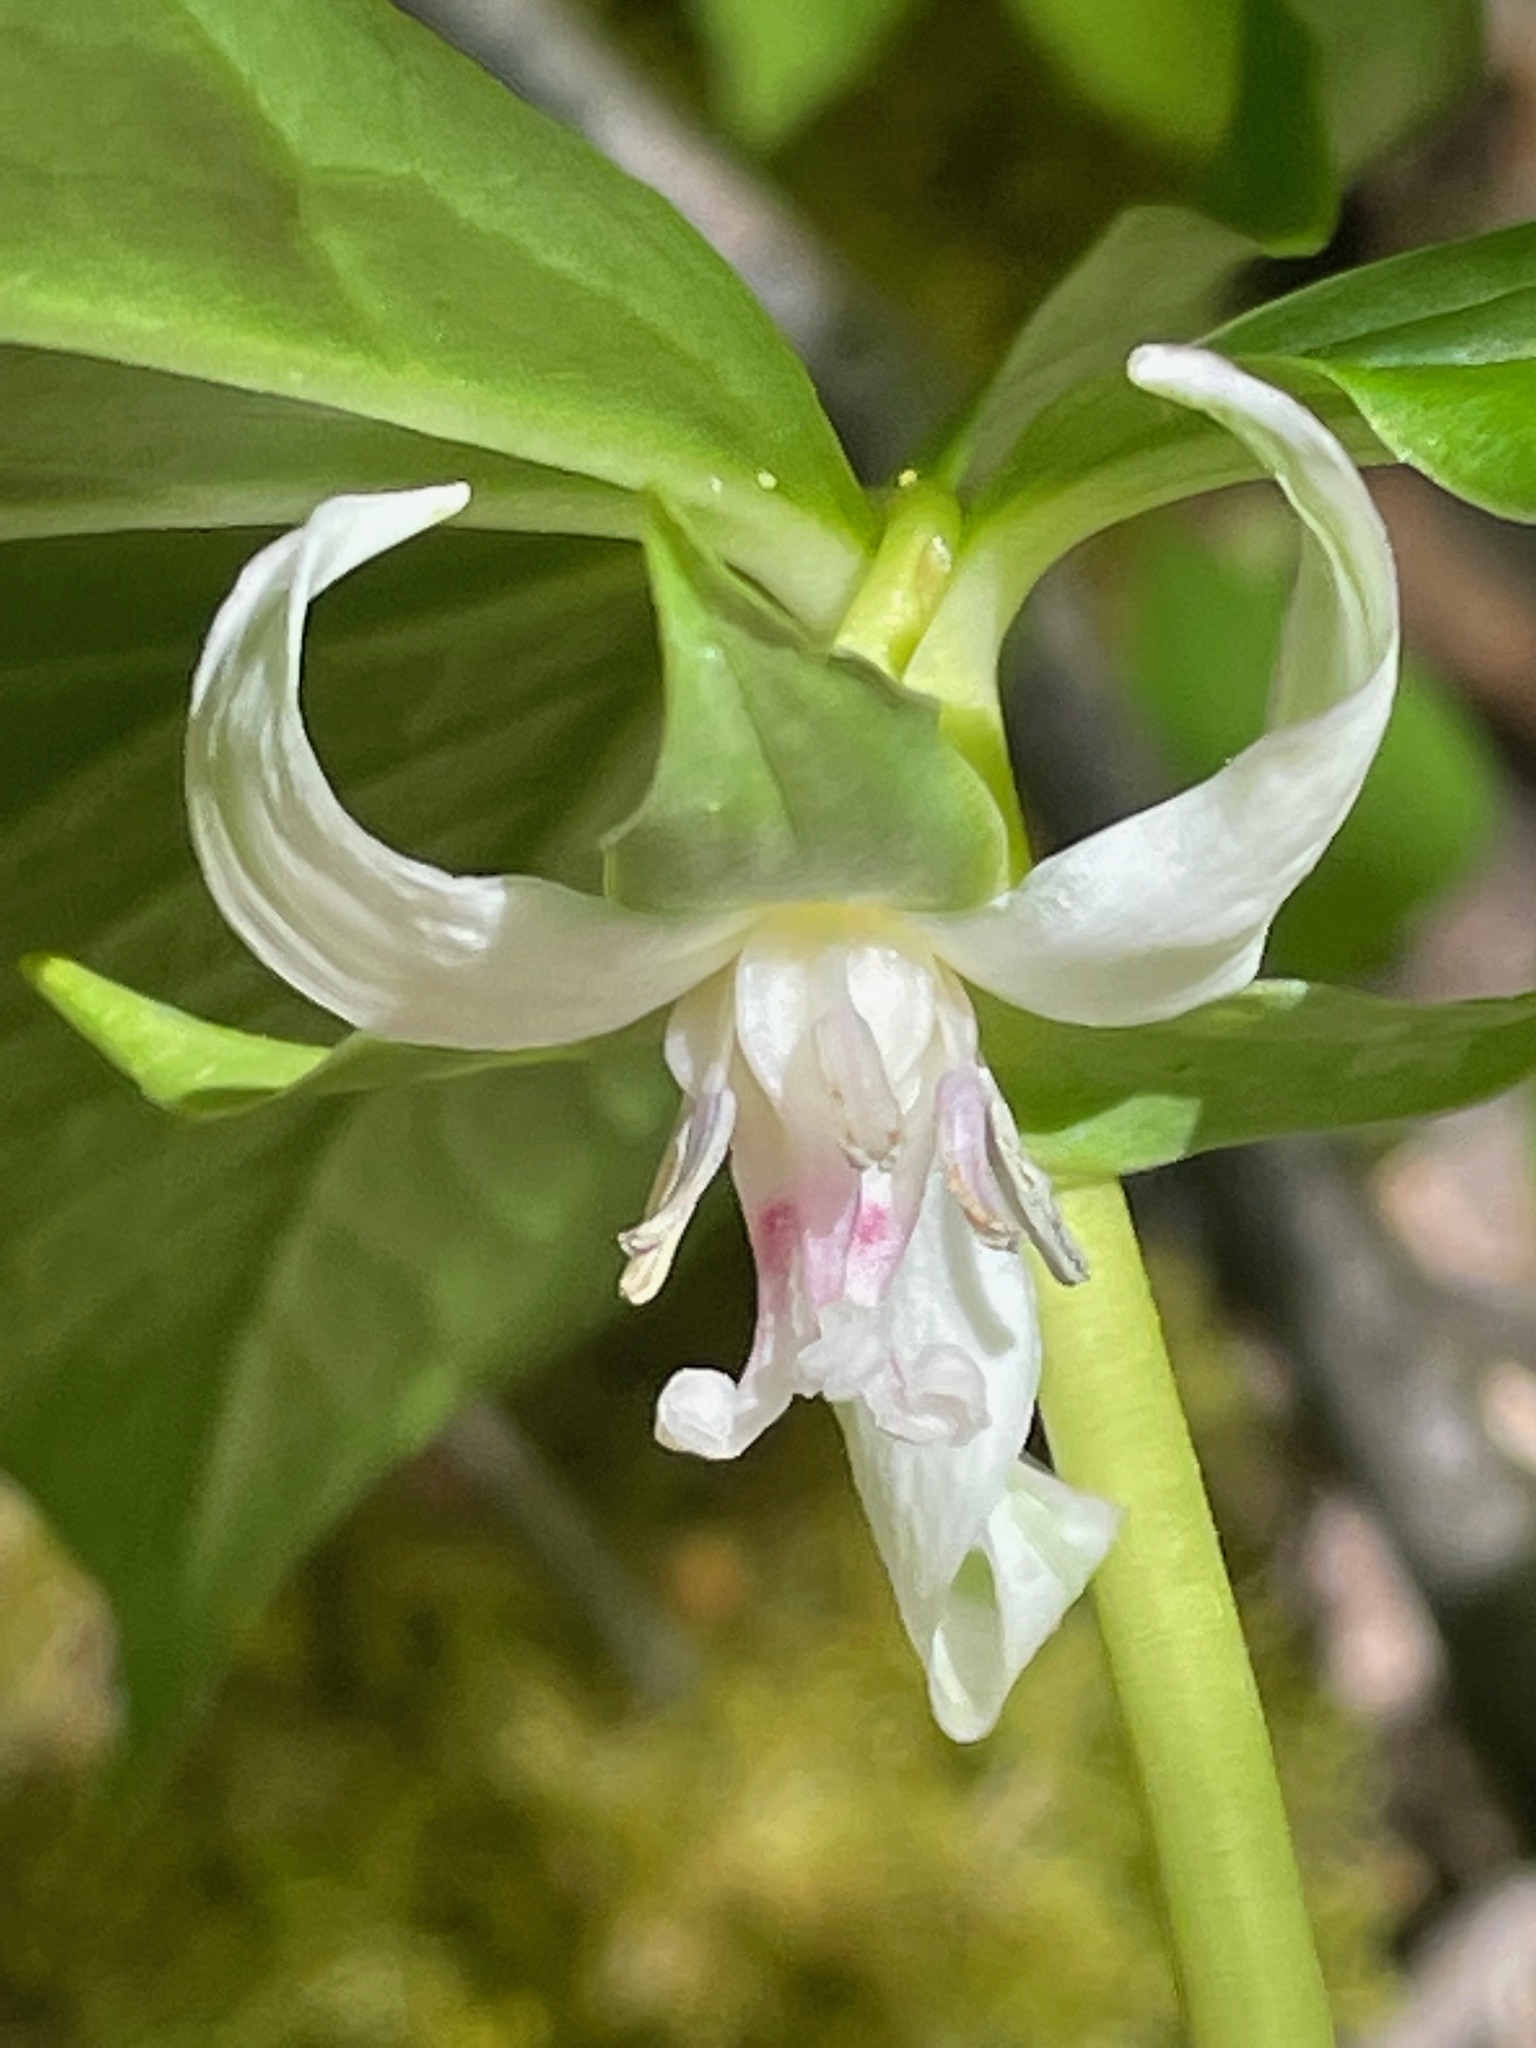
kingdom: Plantae
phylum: Tracheophyta
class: Liliopsida
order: Liliales
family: Melanthiaceae
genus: Trillium
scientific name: Trillium cernuum
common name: Nodding trillium
